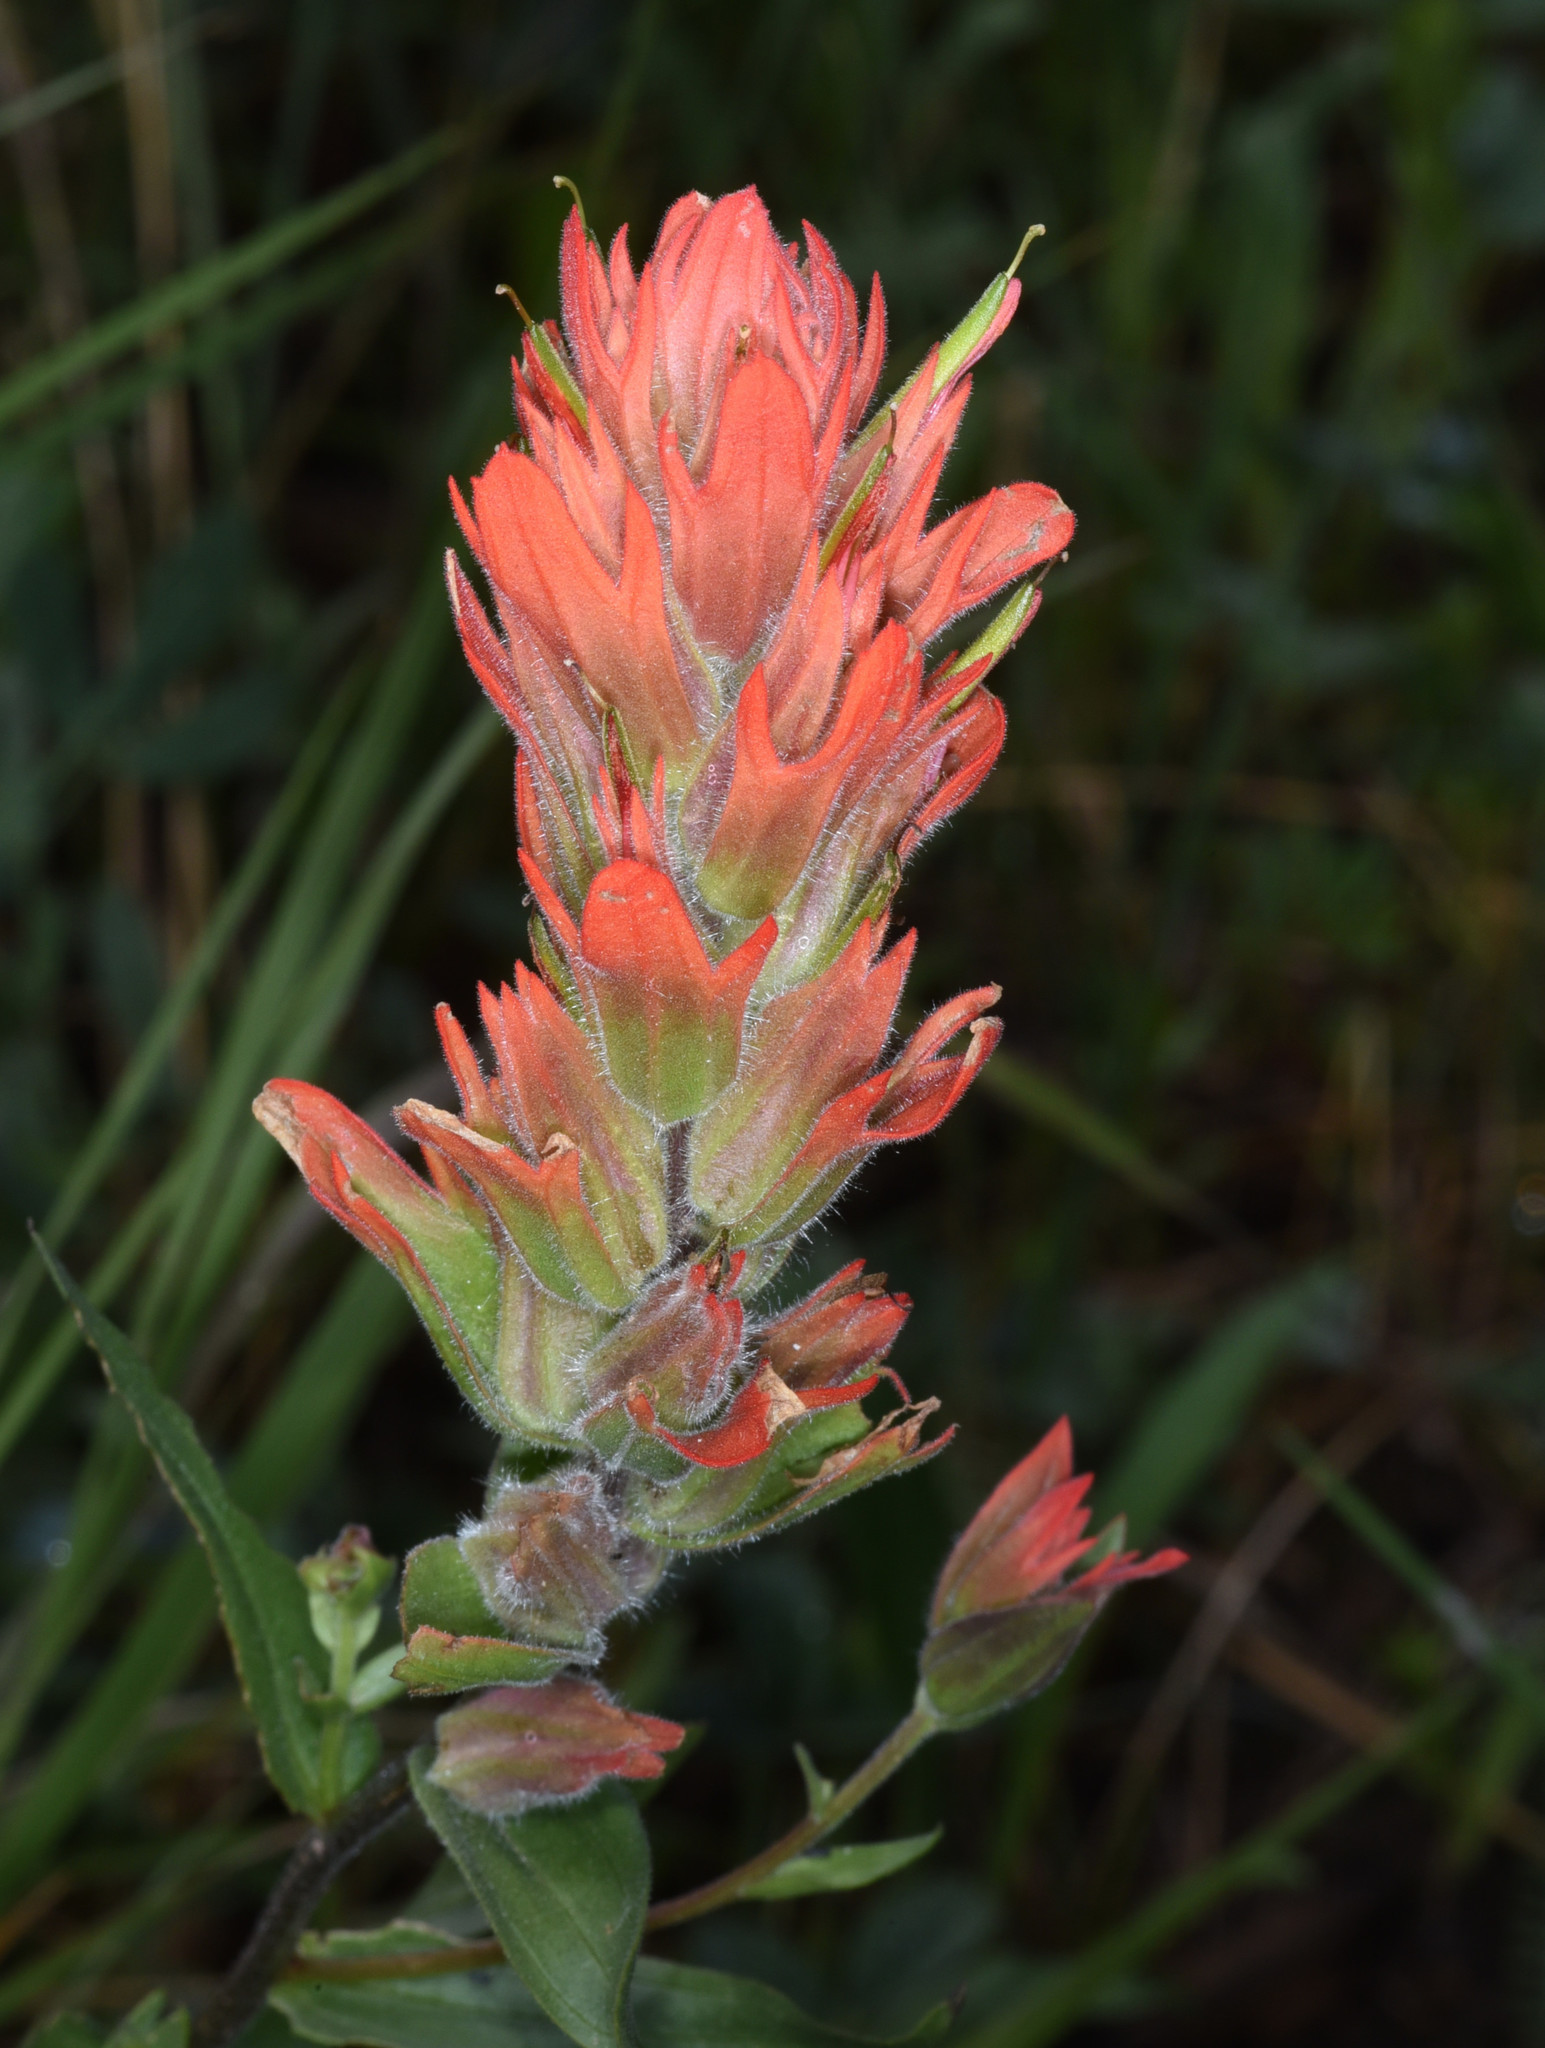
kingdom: Plantae
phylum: Tracheophyta
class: Magnoliopsida
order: Lamiales
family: Orobanchaceae
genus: Castilleja
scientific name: Castilleja miniata
